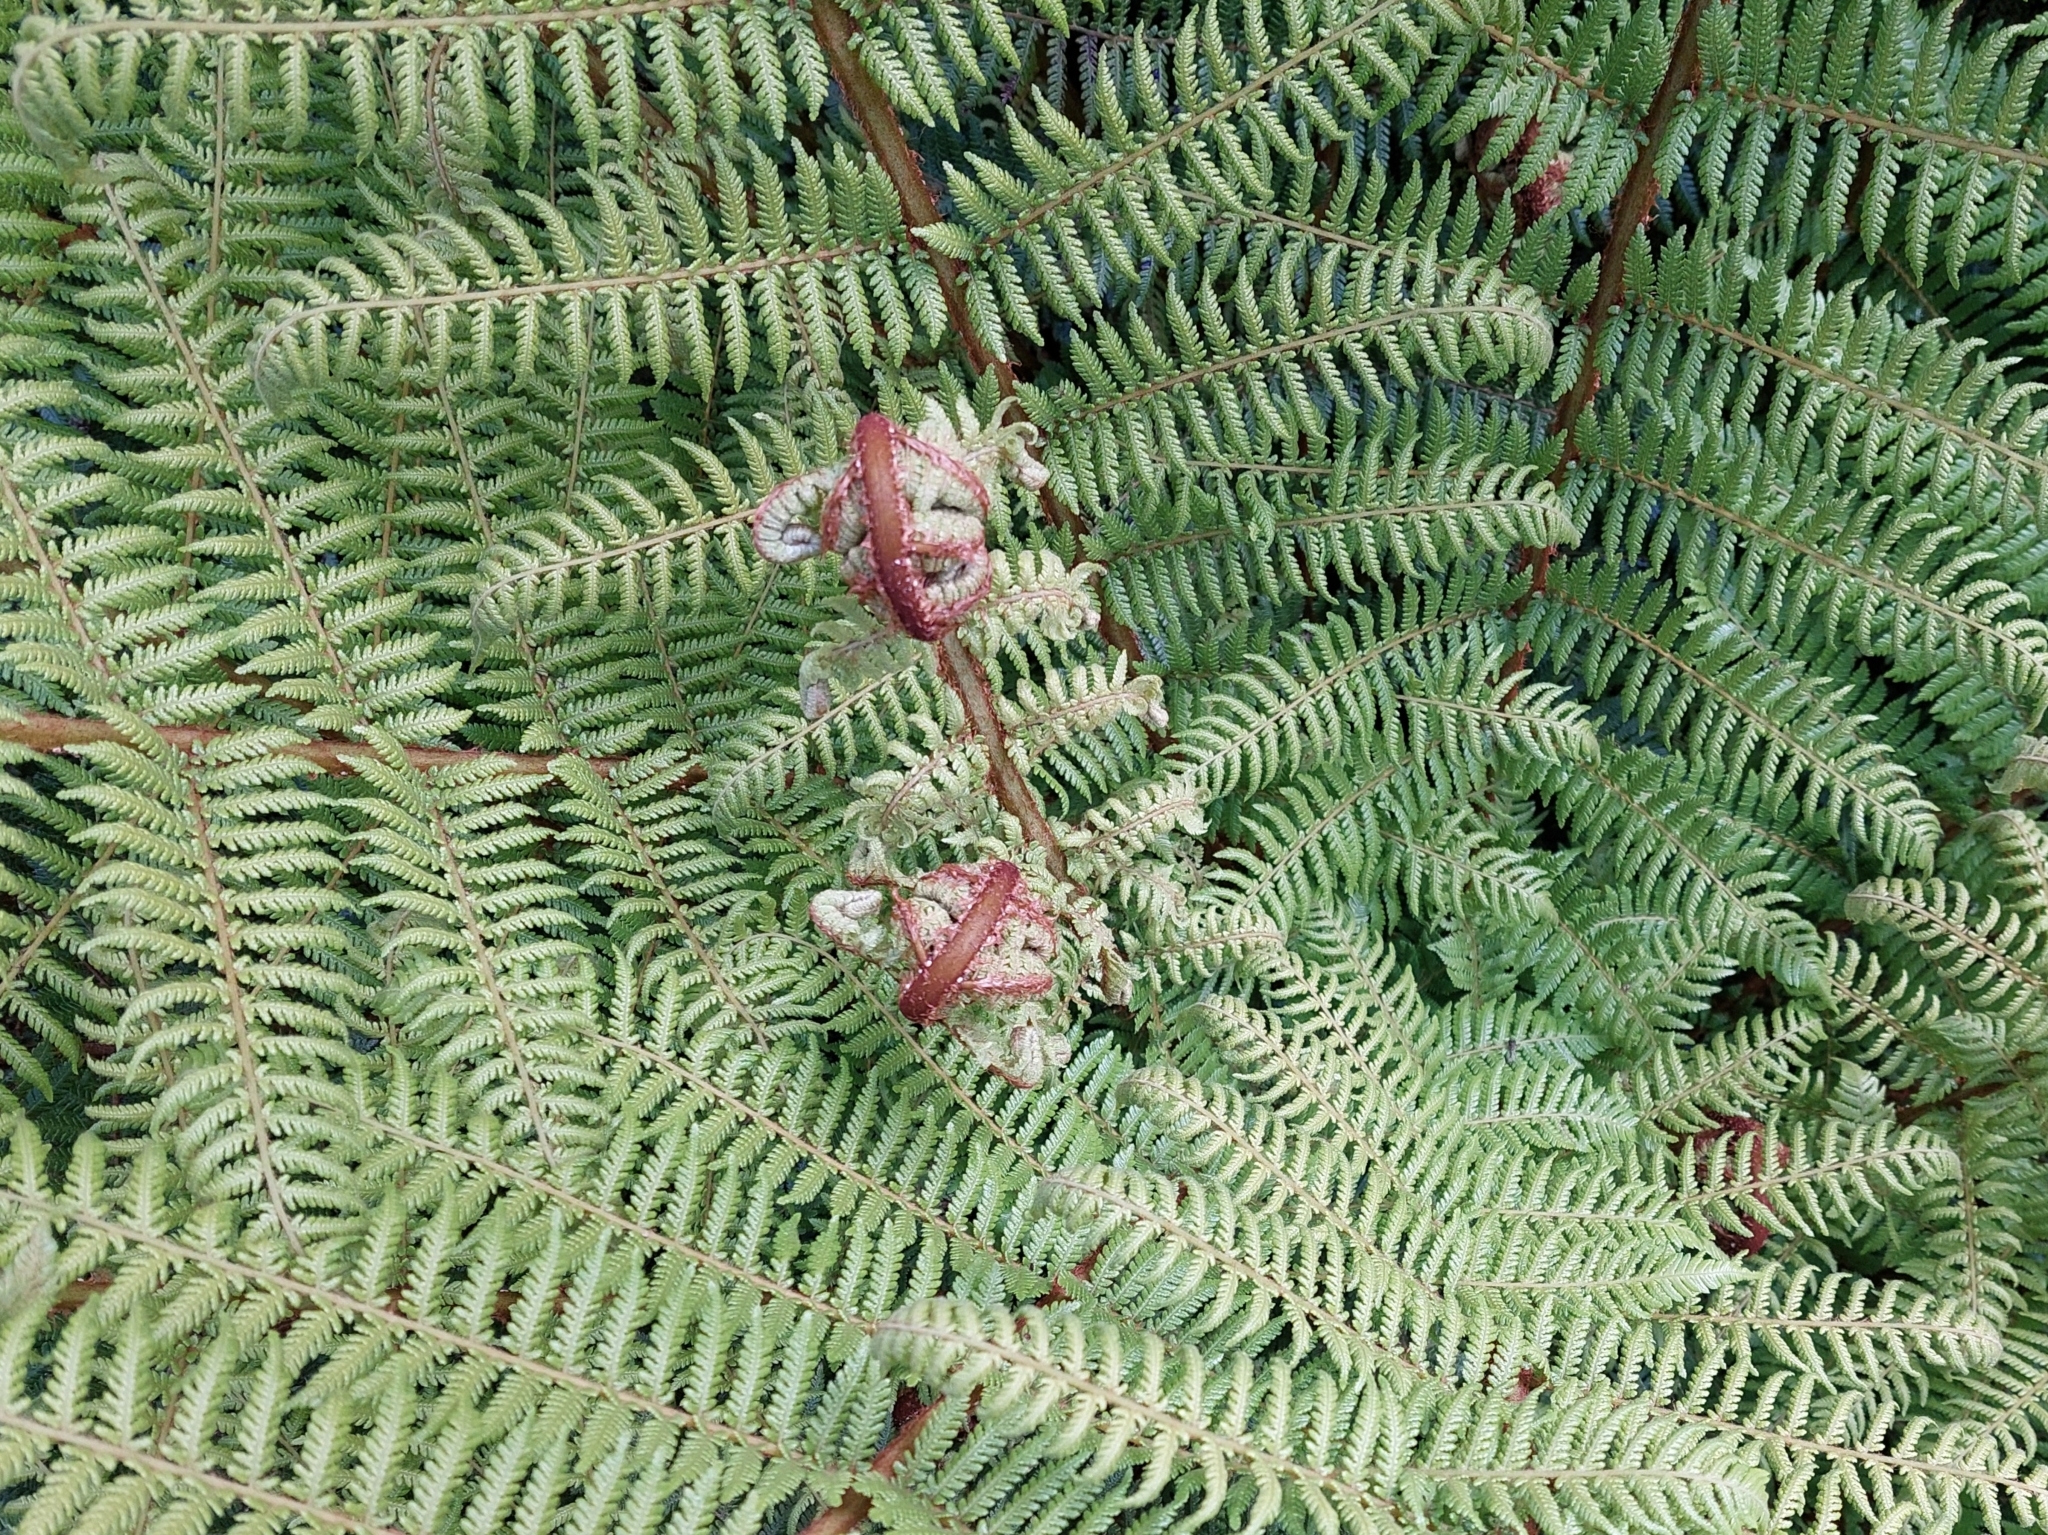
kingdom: Plantae
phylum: Tracheophyta
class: Polypodiopsida
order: Cyatheales
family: Cyatheaceae
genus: Alsophila
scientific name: Alsophila smithii
